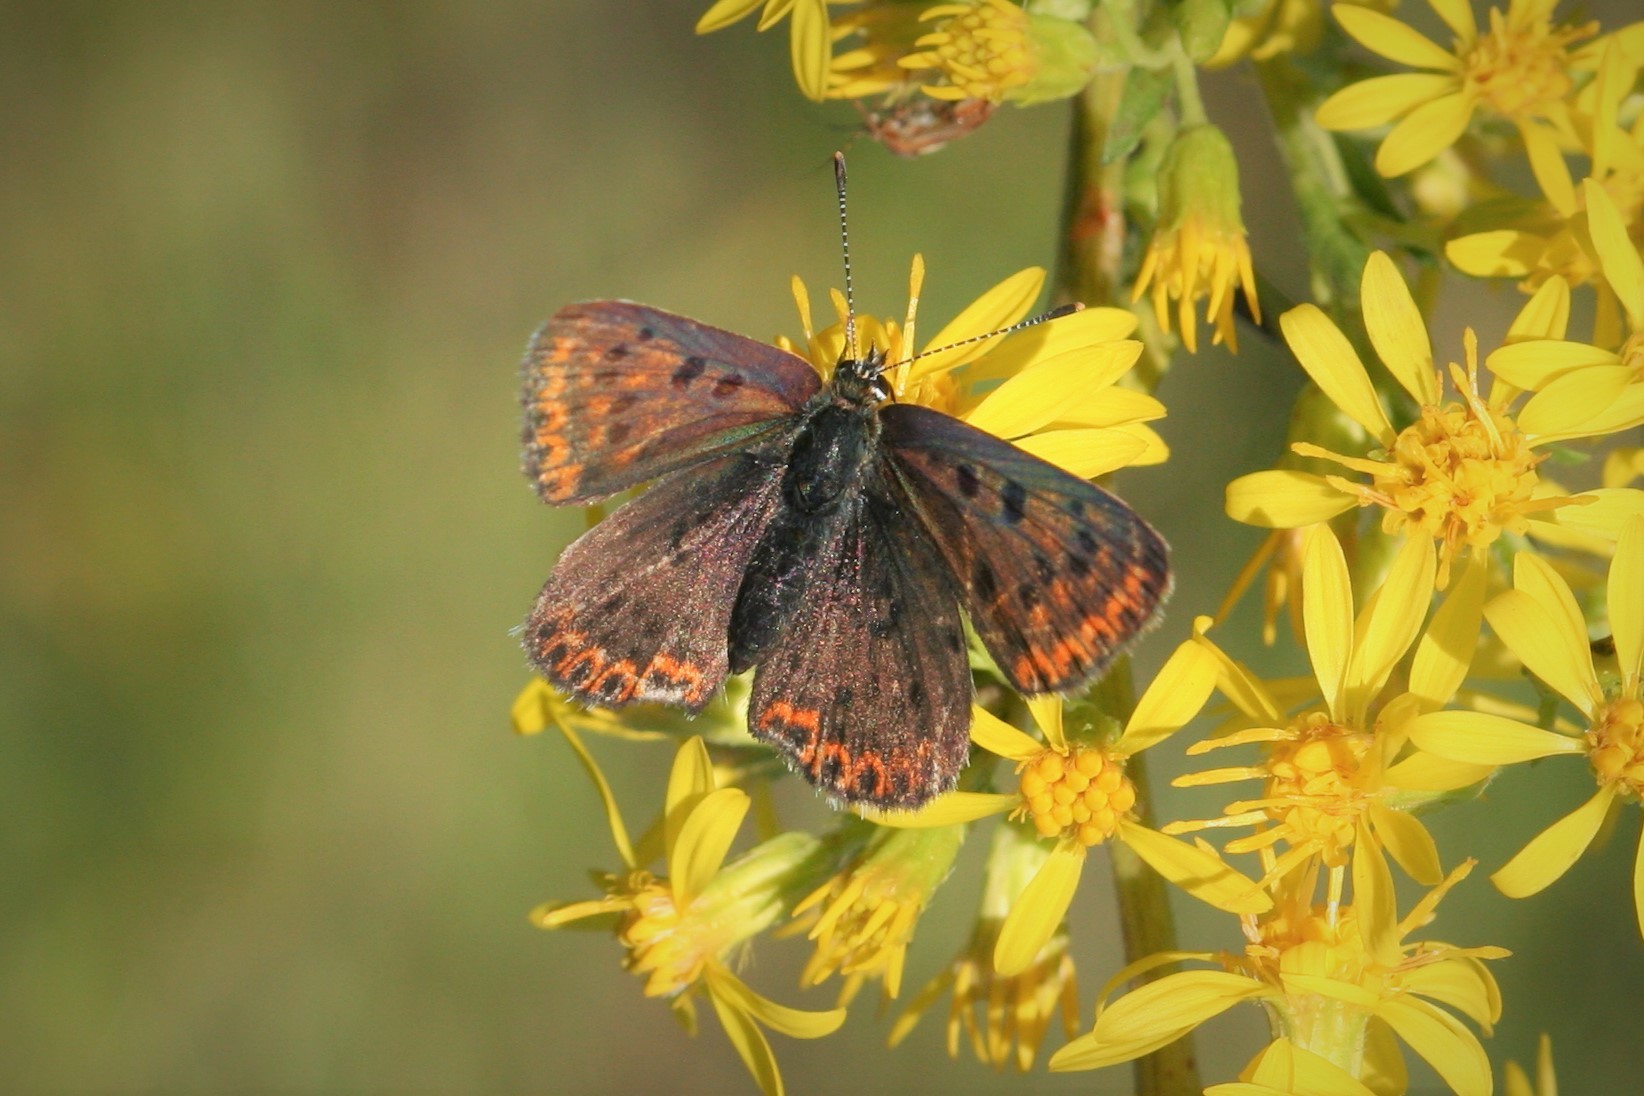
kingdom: Animalia
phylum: Arthropoda
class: Insecta
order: Lepidoptera
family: Lycaenidae
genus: Loweia
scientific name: Loweia tityrus
